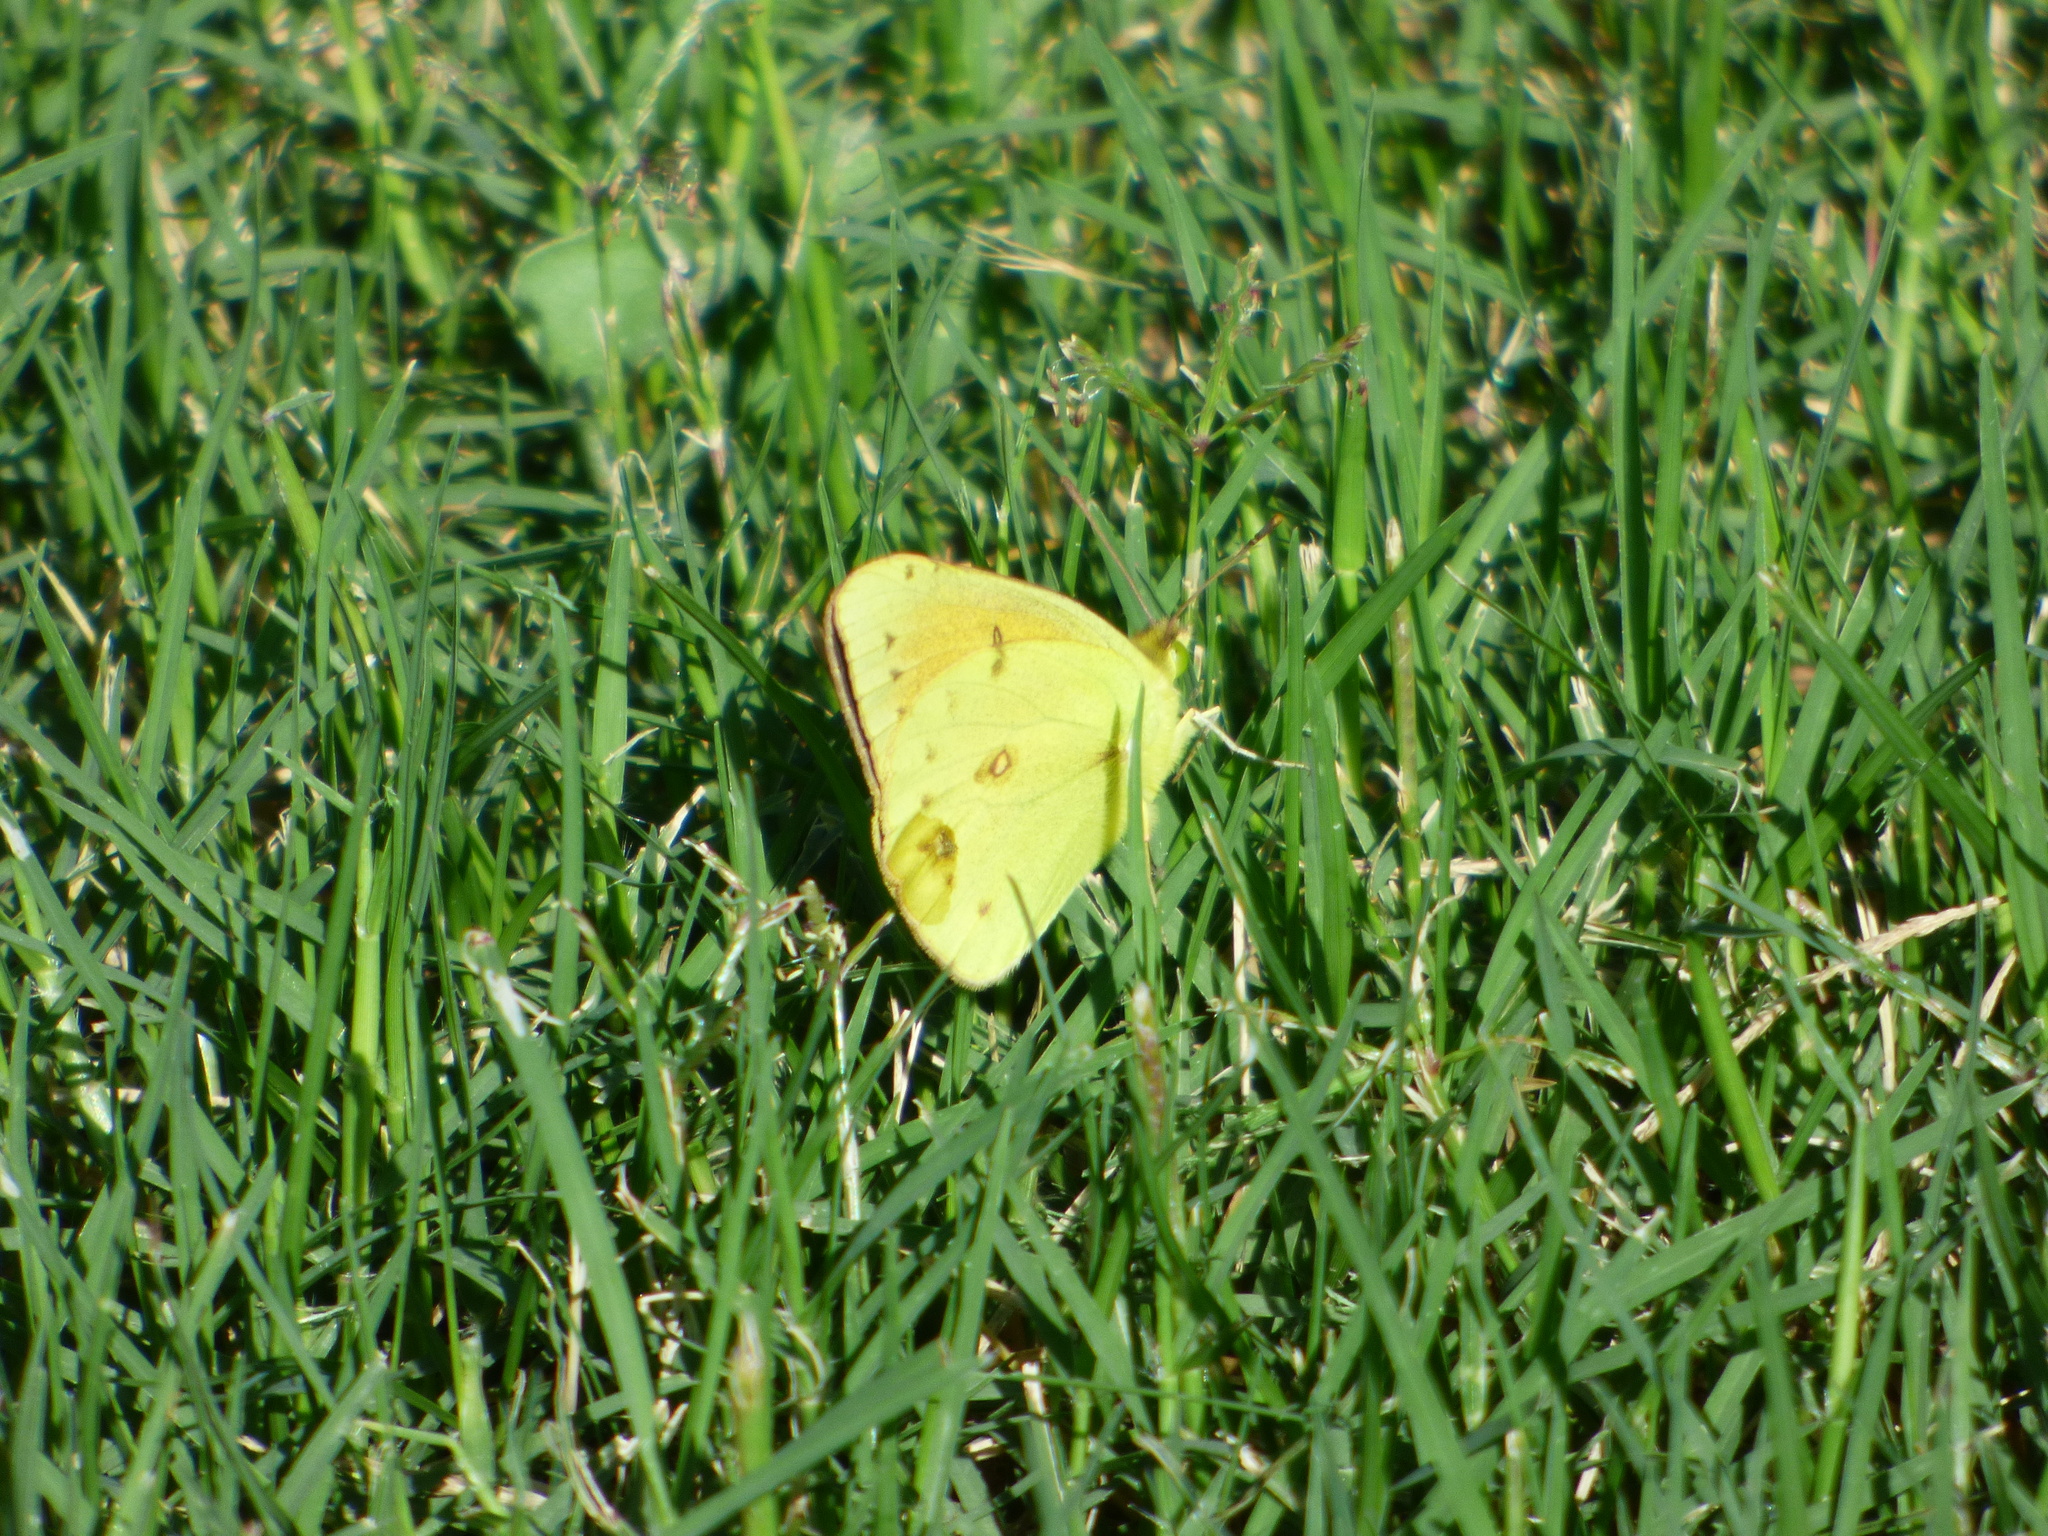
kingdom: Animalia
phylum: Arthropoda
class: Insecta
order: Lepidoptera
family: Pieridae
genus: Colias
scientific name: Colias lesbia
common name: Lesbia clouded yellow
